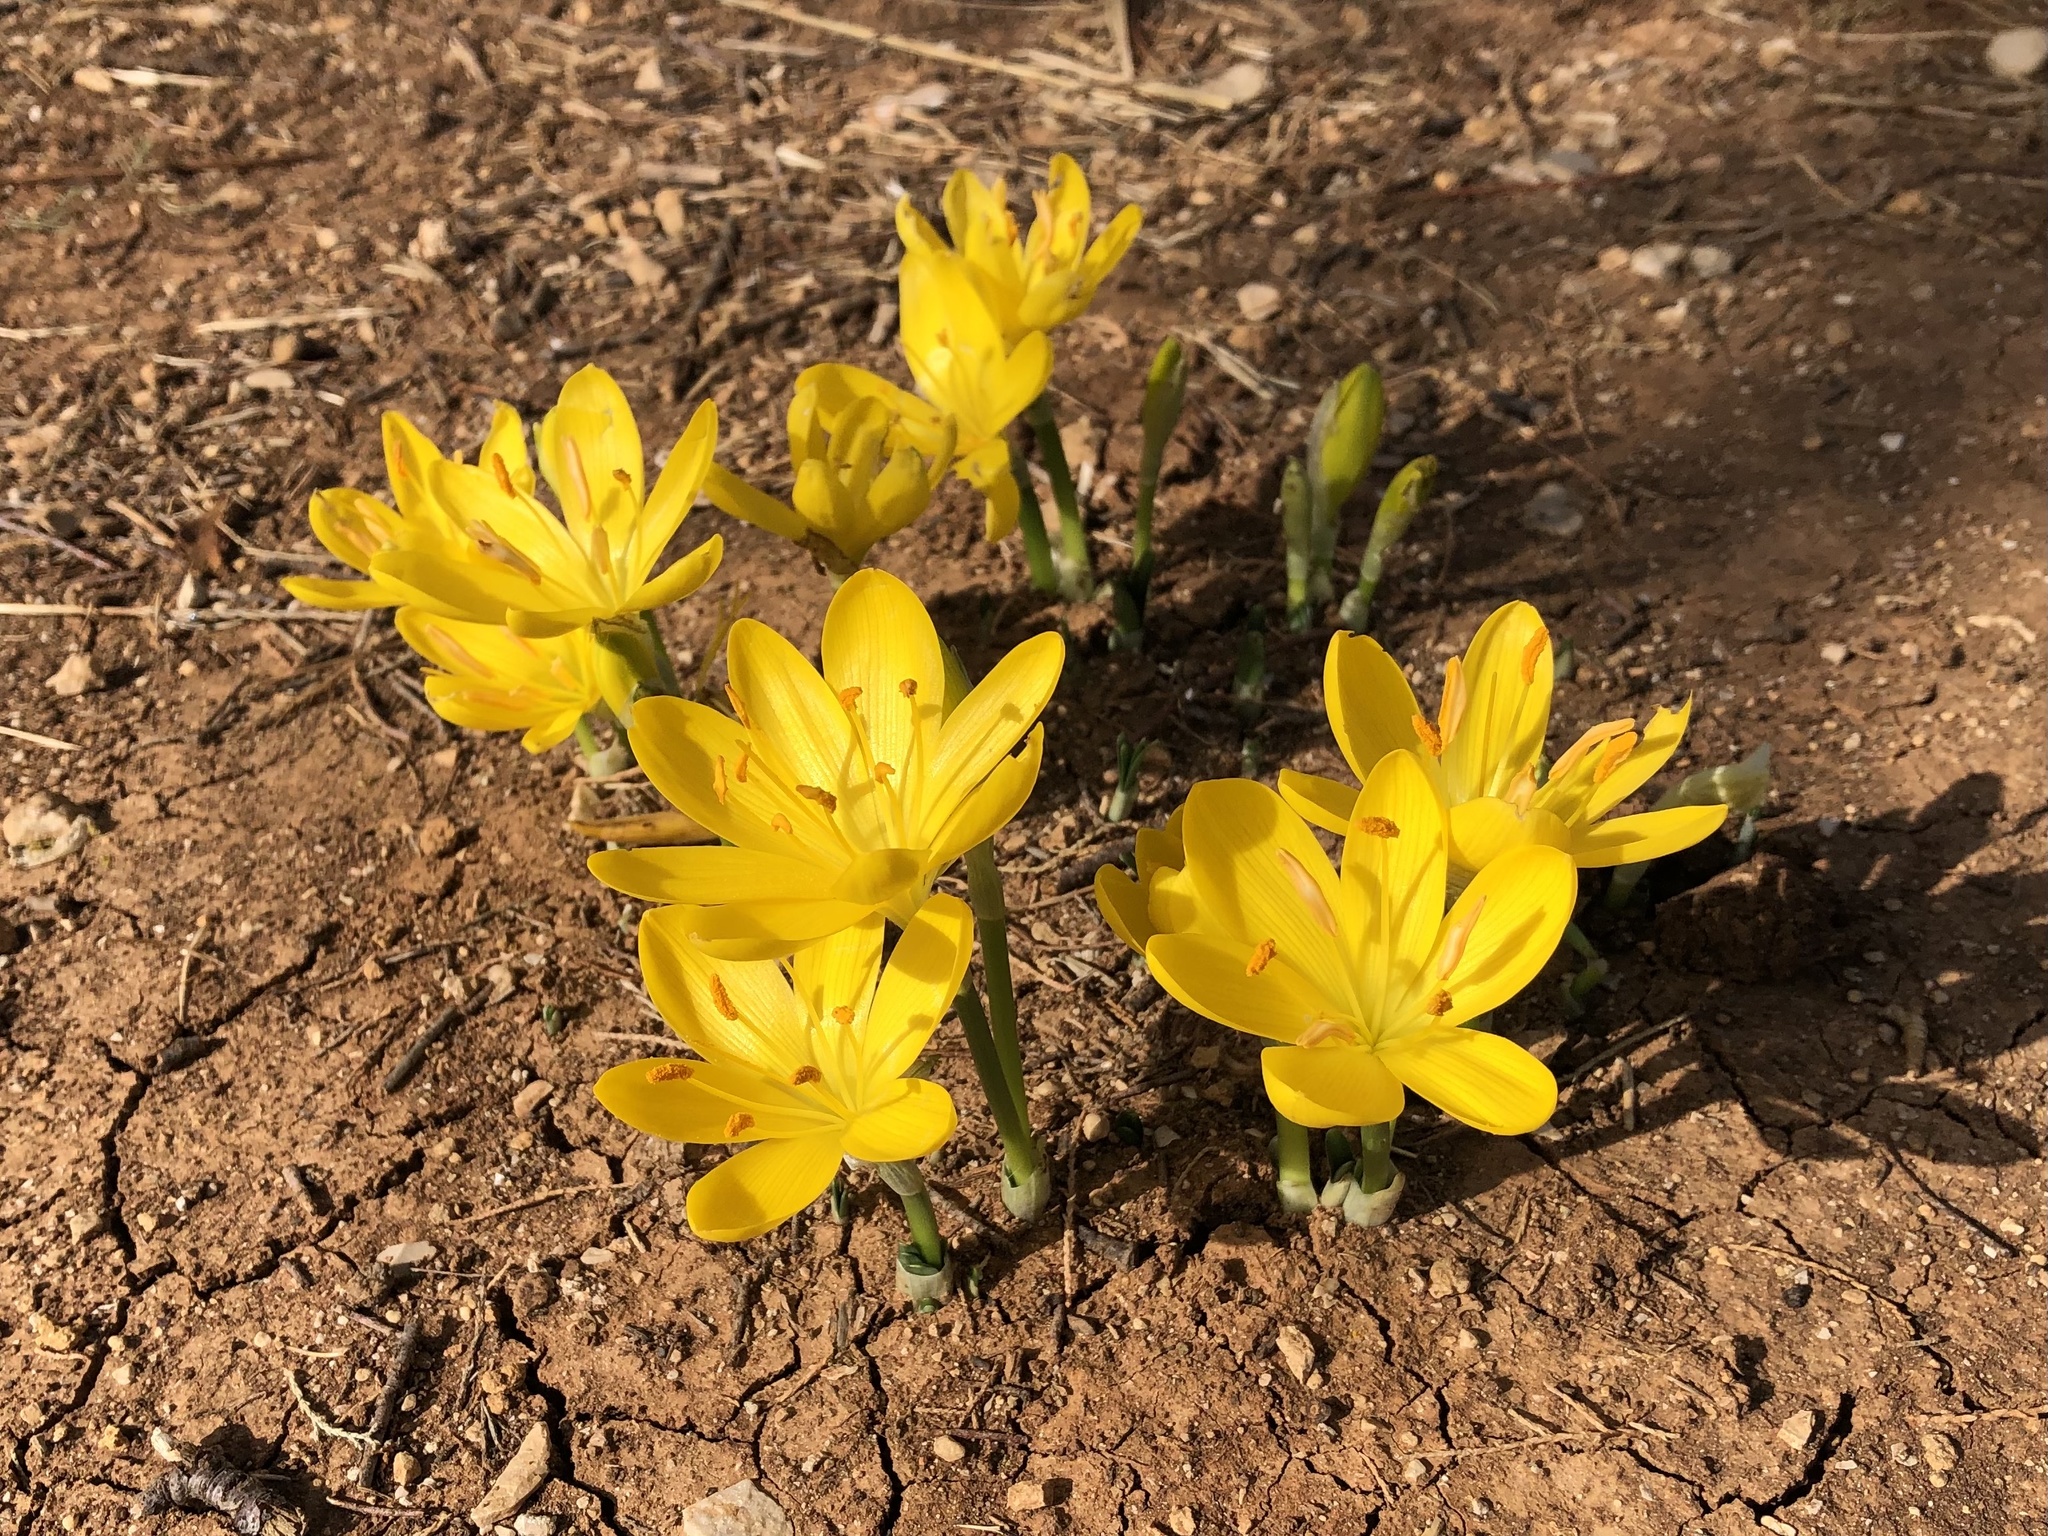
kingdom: Plantae
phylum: Tracheophyta
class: Liliopsida
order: Asparagales
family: Amaryllidaceae
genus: Sternbergia
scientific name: Sternbergia lutea
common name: Winter daffodil
